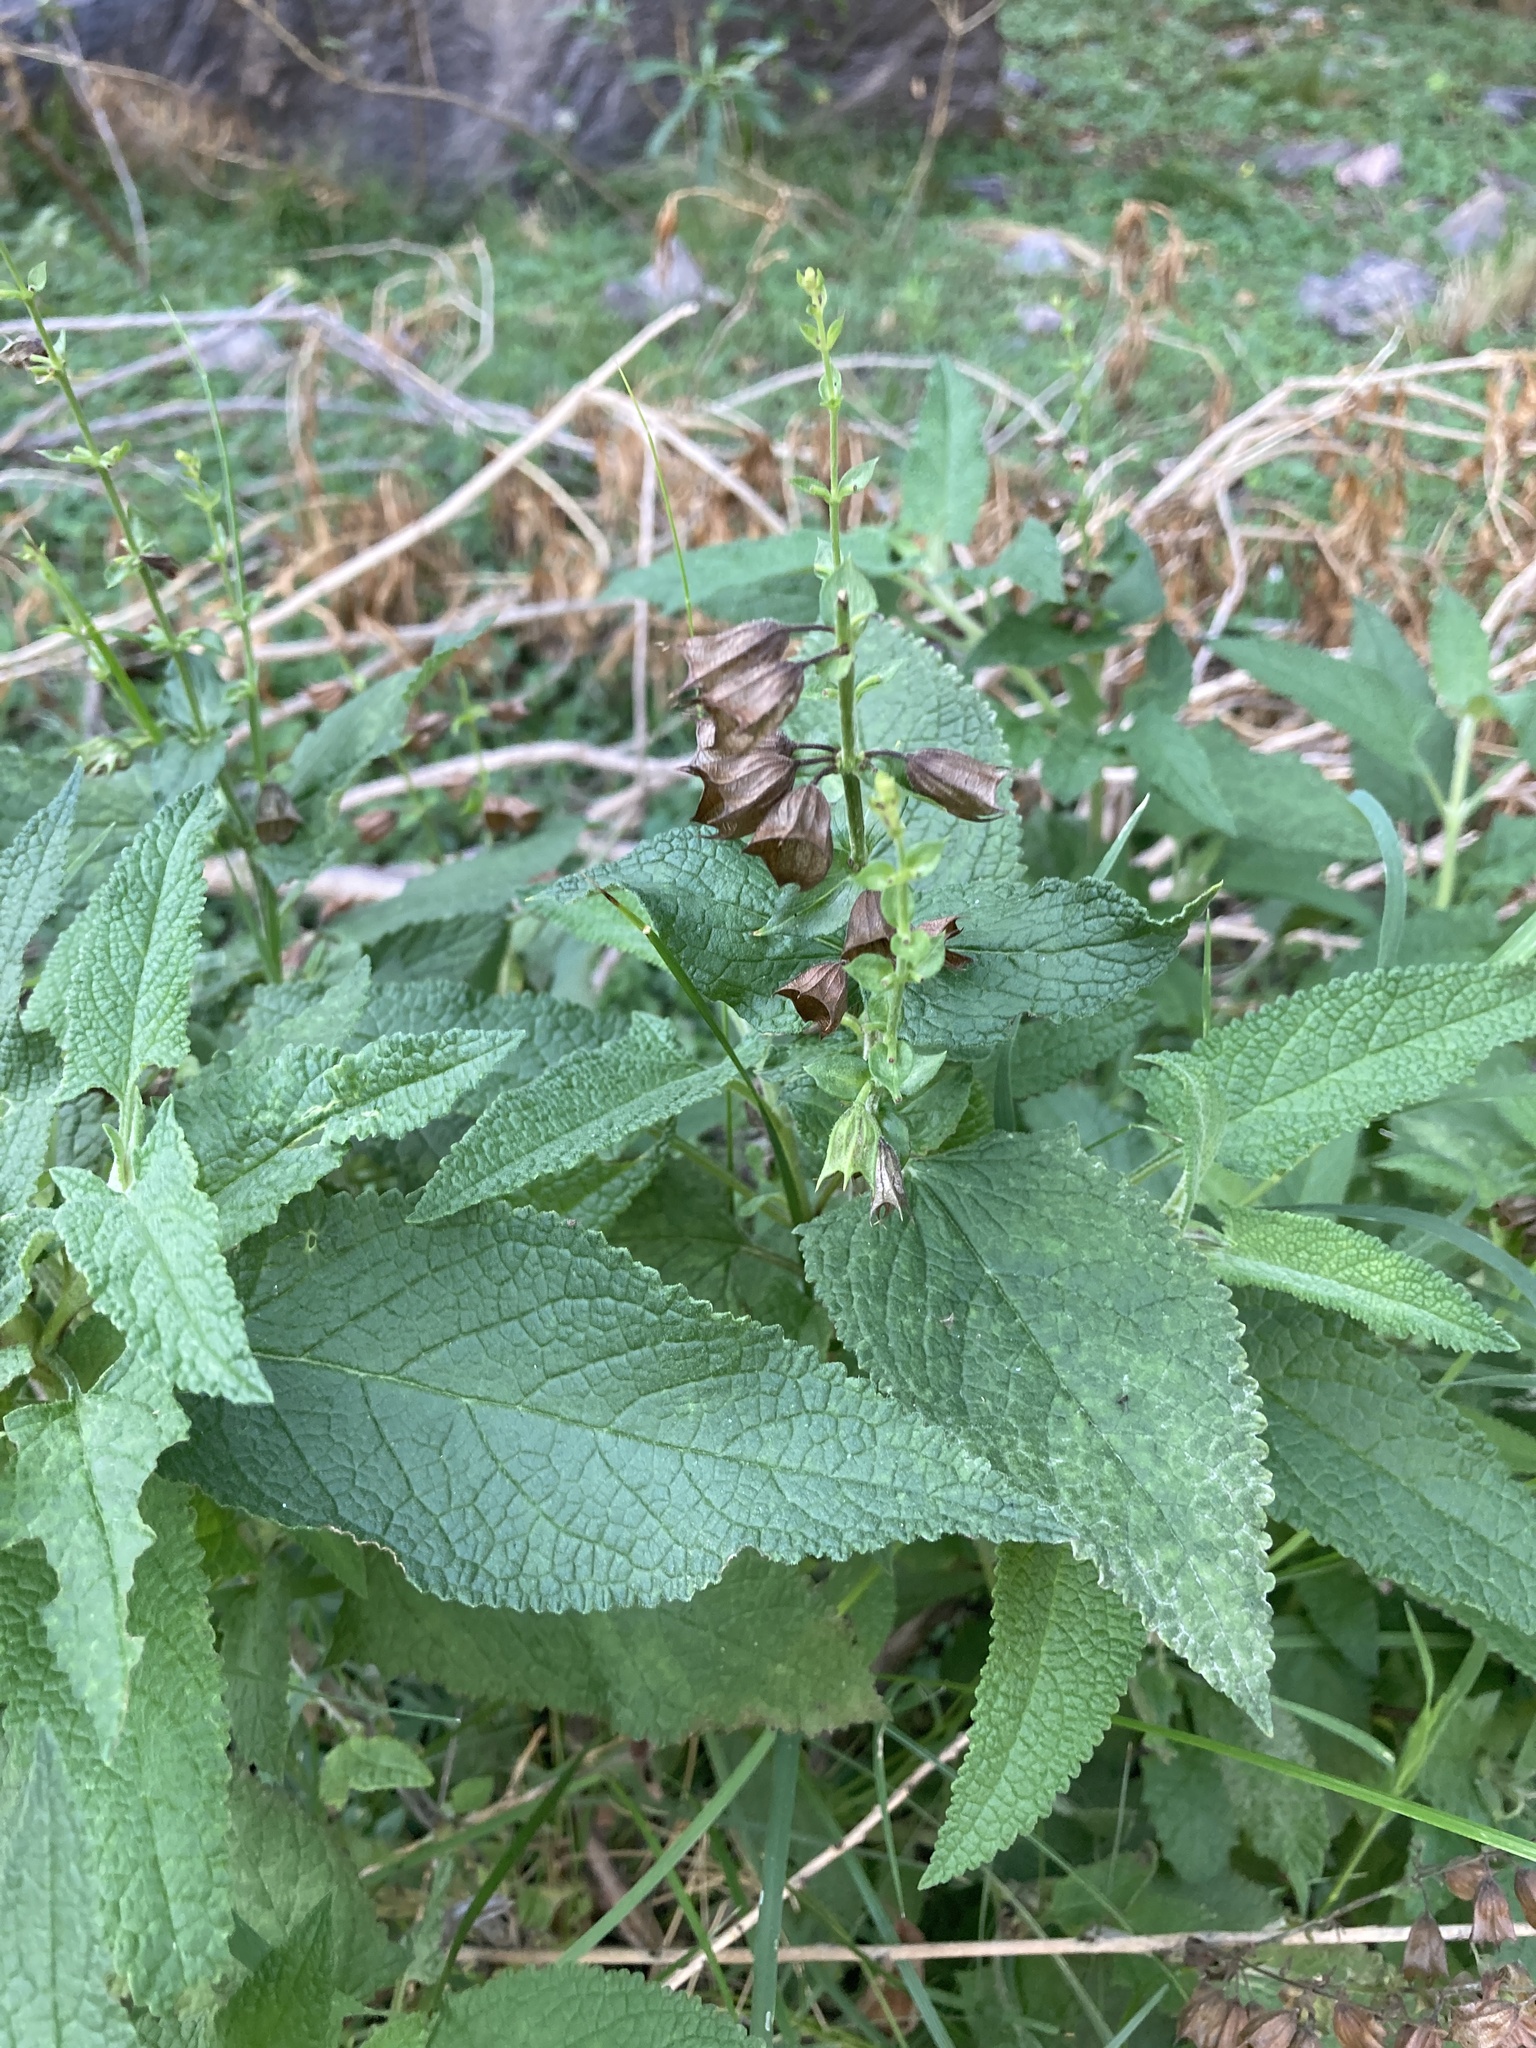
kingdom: Plantae
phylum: Tracheophyta
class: Magnoliopsida
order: Lamiales
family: Lamiaceae
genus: Lepechinia
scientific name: Lepechinia floribunda
